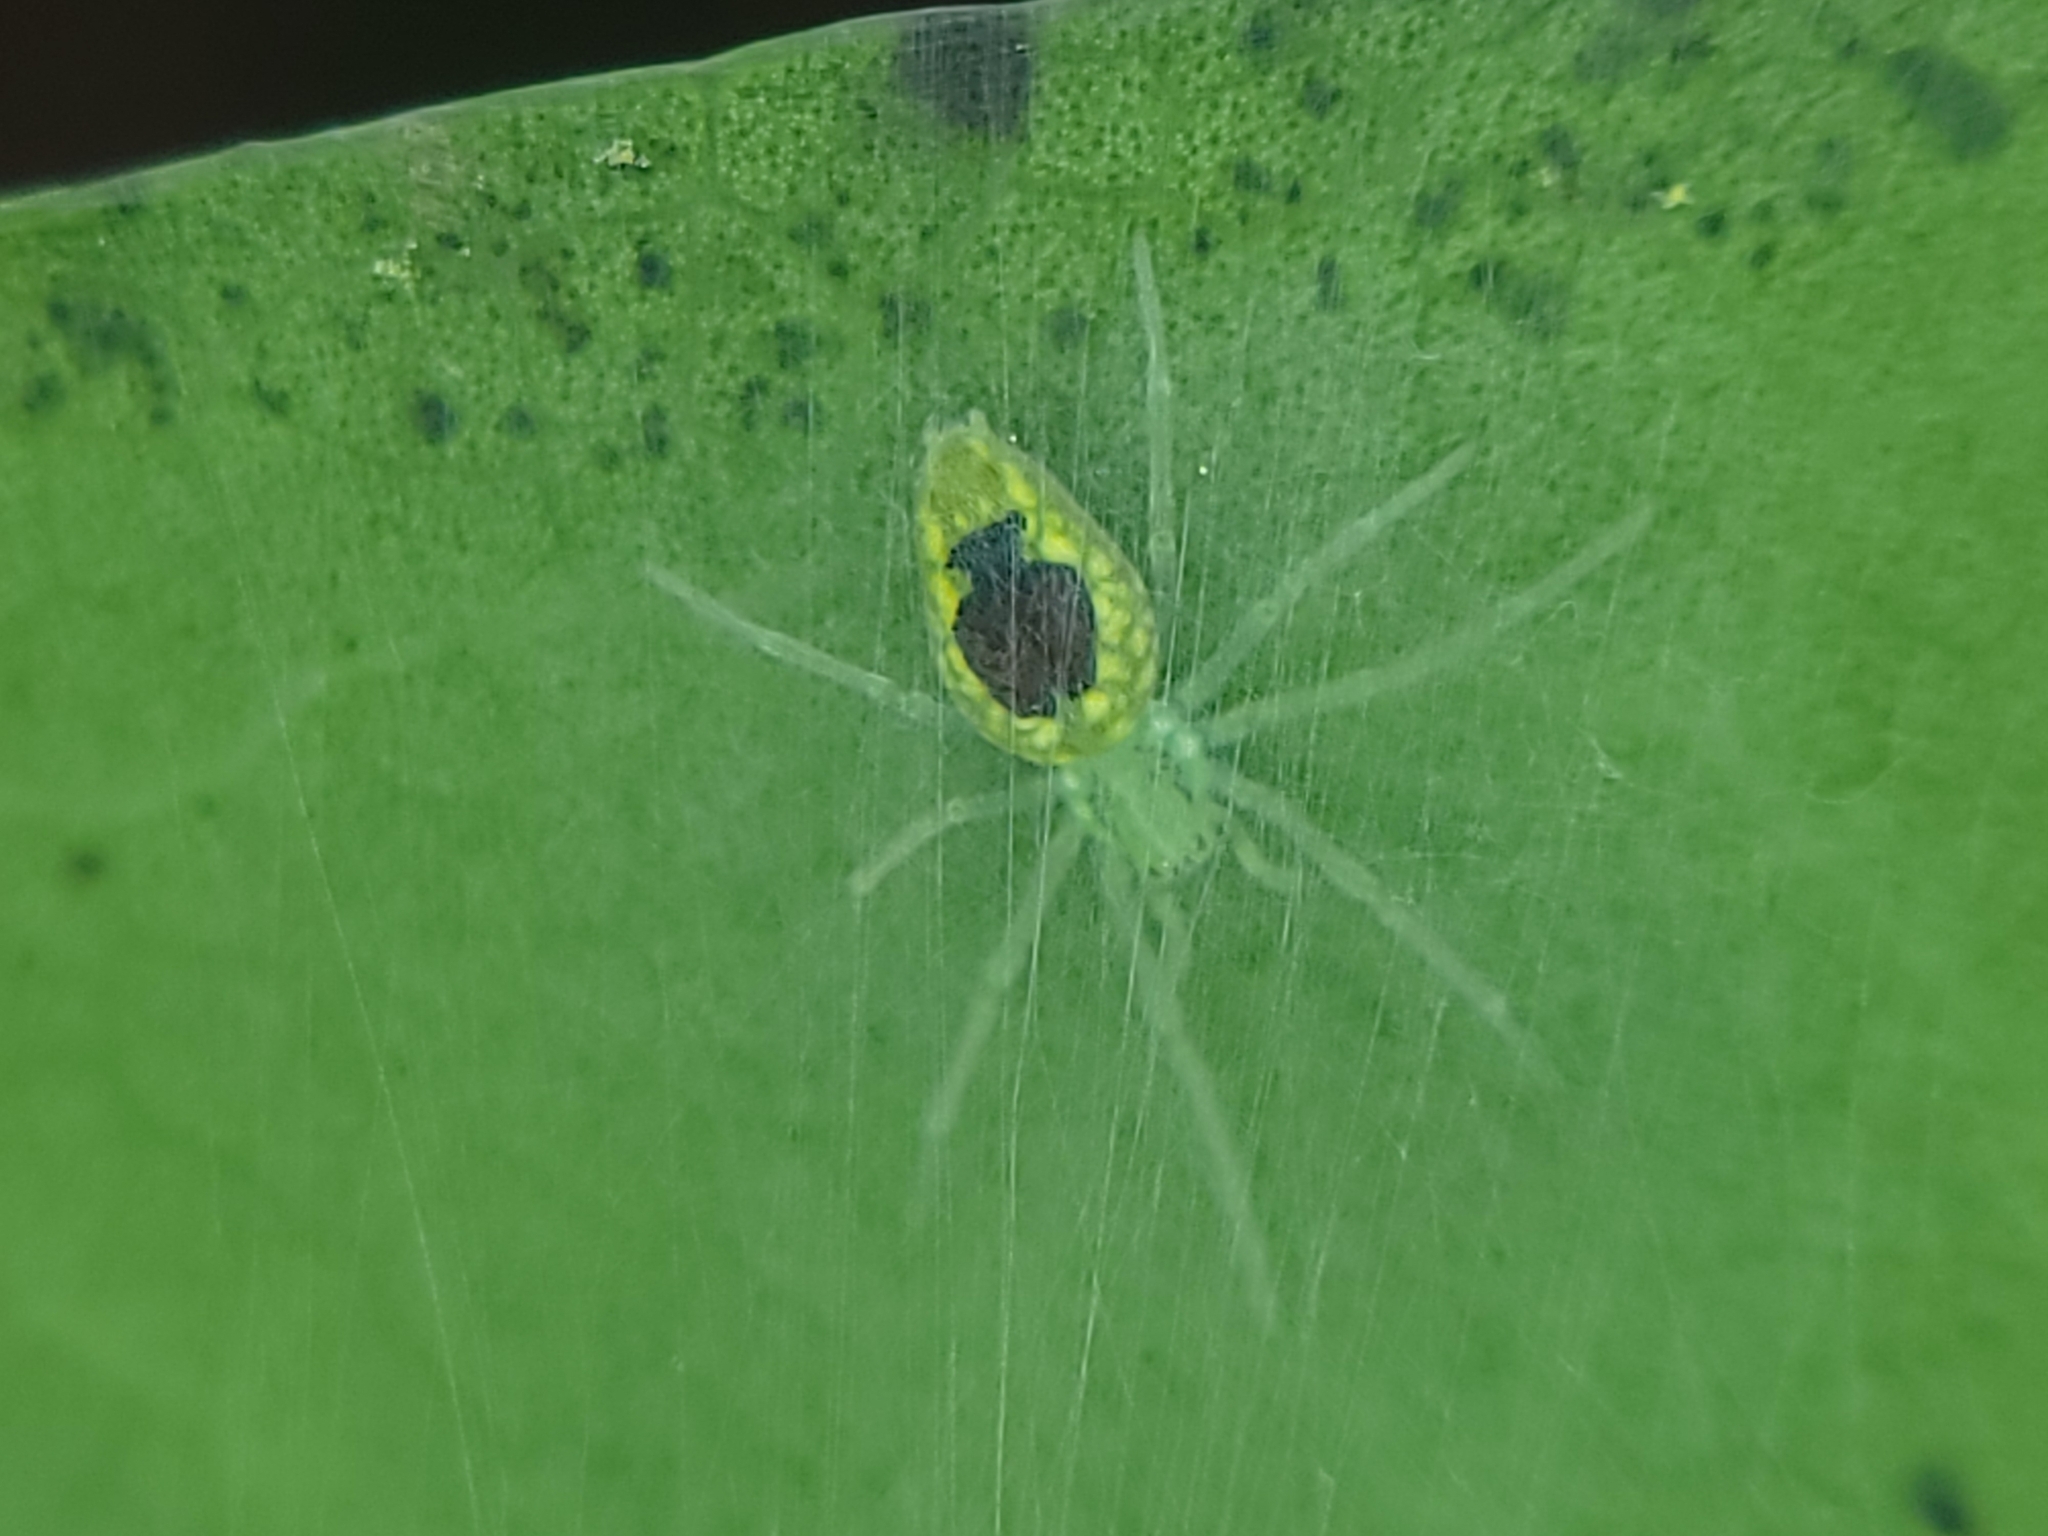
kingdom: Animalia
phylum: Arthropoda
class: Arachnida
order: Araneae
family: Dictynidae
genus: Nigma
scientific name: Nigma linsdalei
